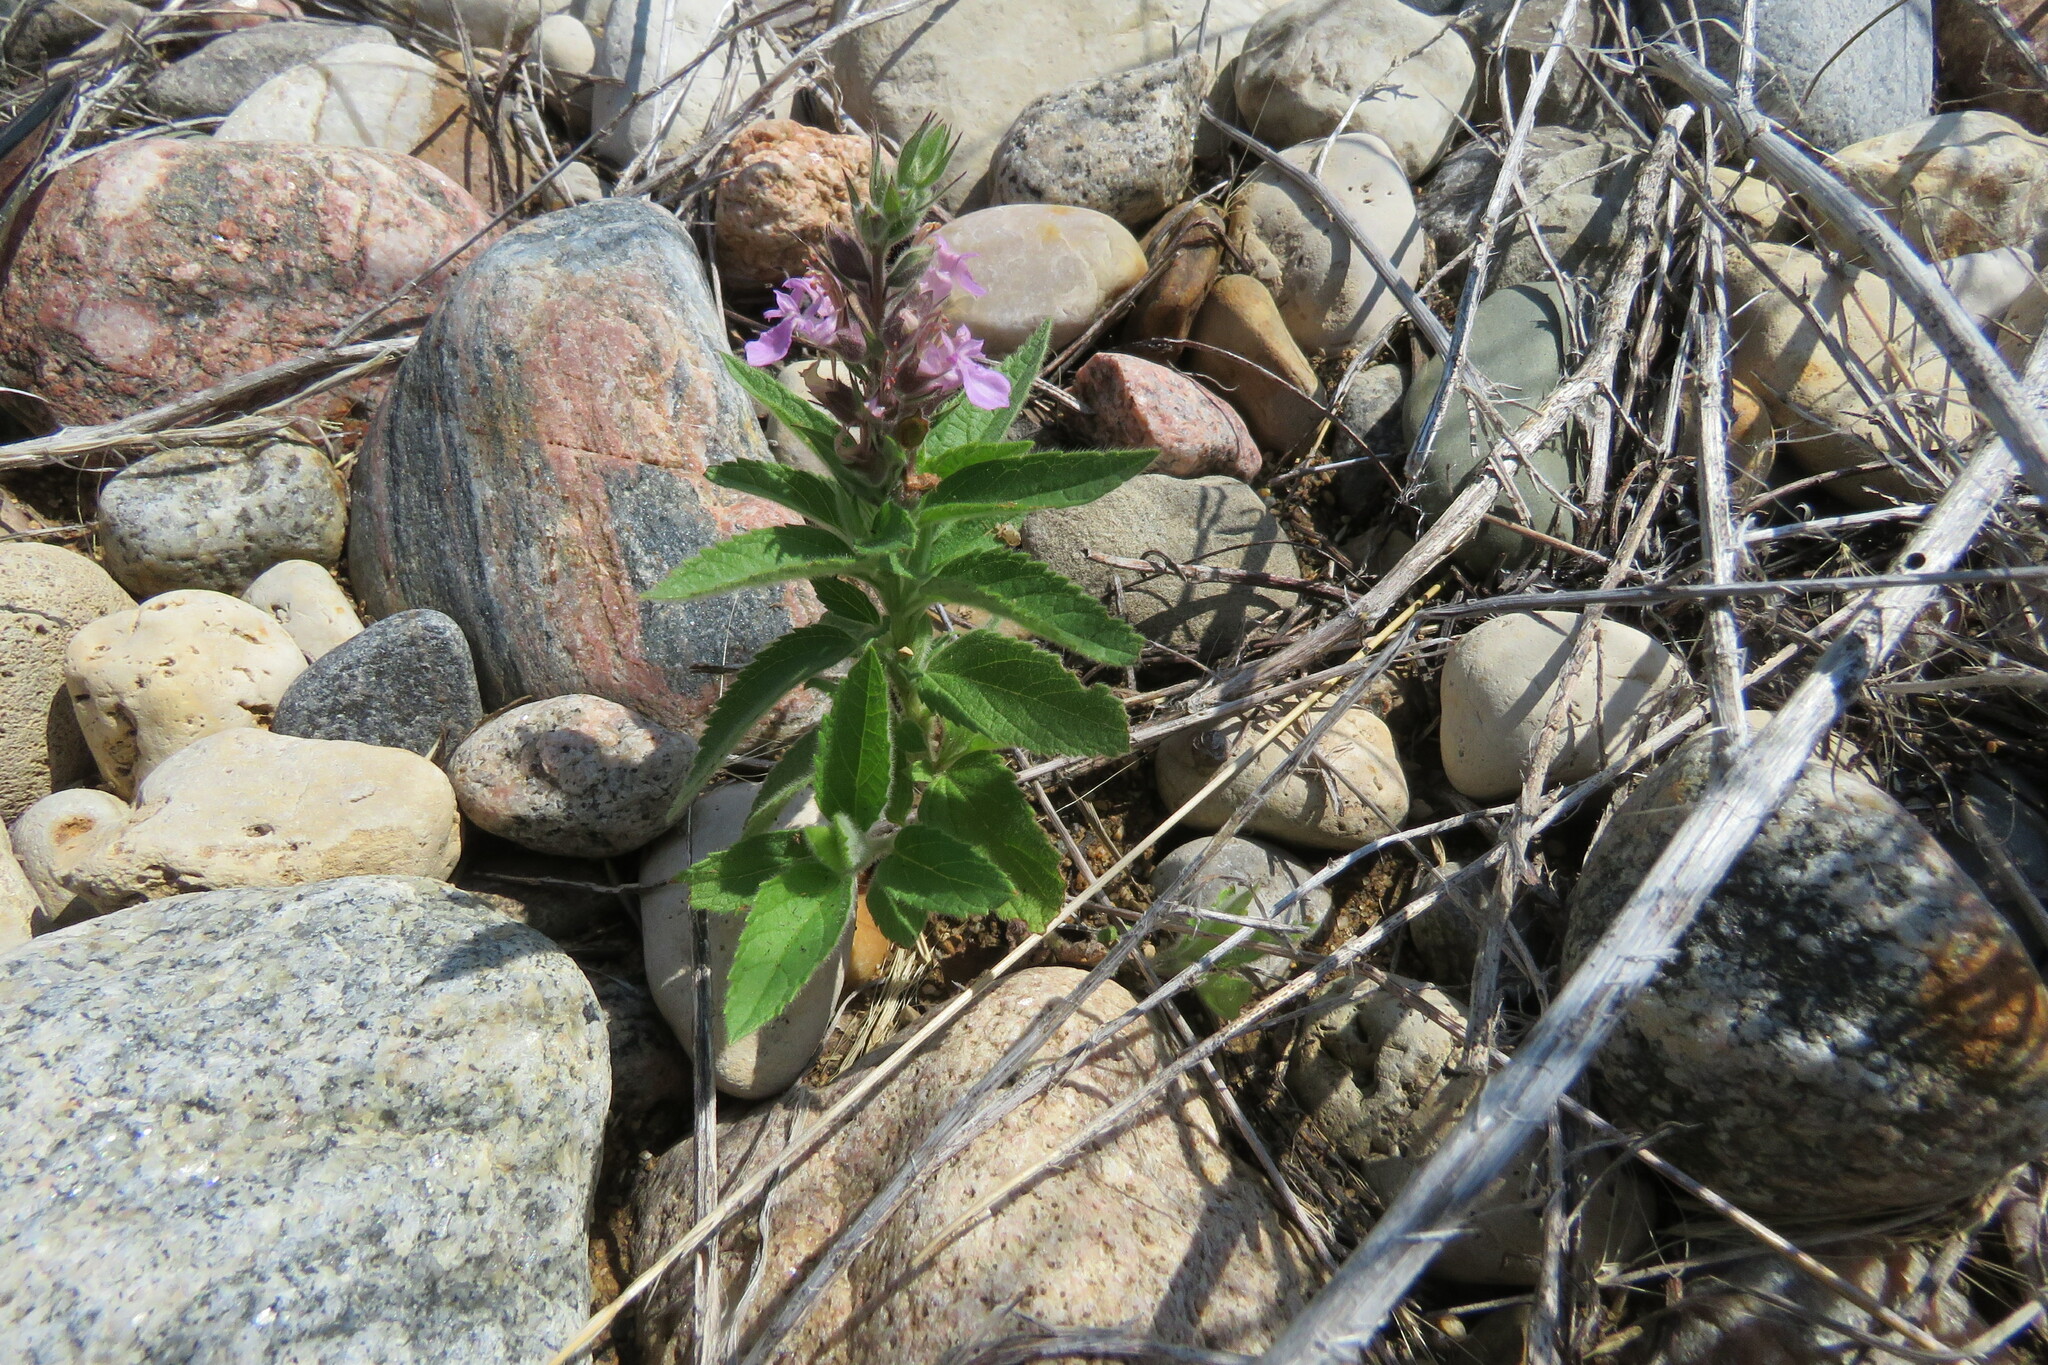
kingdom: Plantae
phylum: Tracheophyta
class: Magnoliopsida
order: Lamiales
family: Lamiaceae
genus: Teucrium
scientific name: Teucrium canadense
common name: American germander
